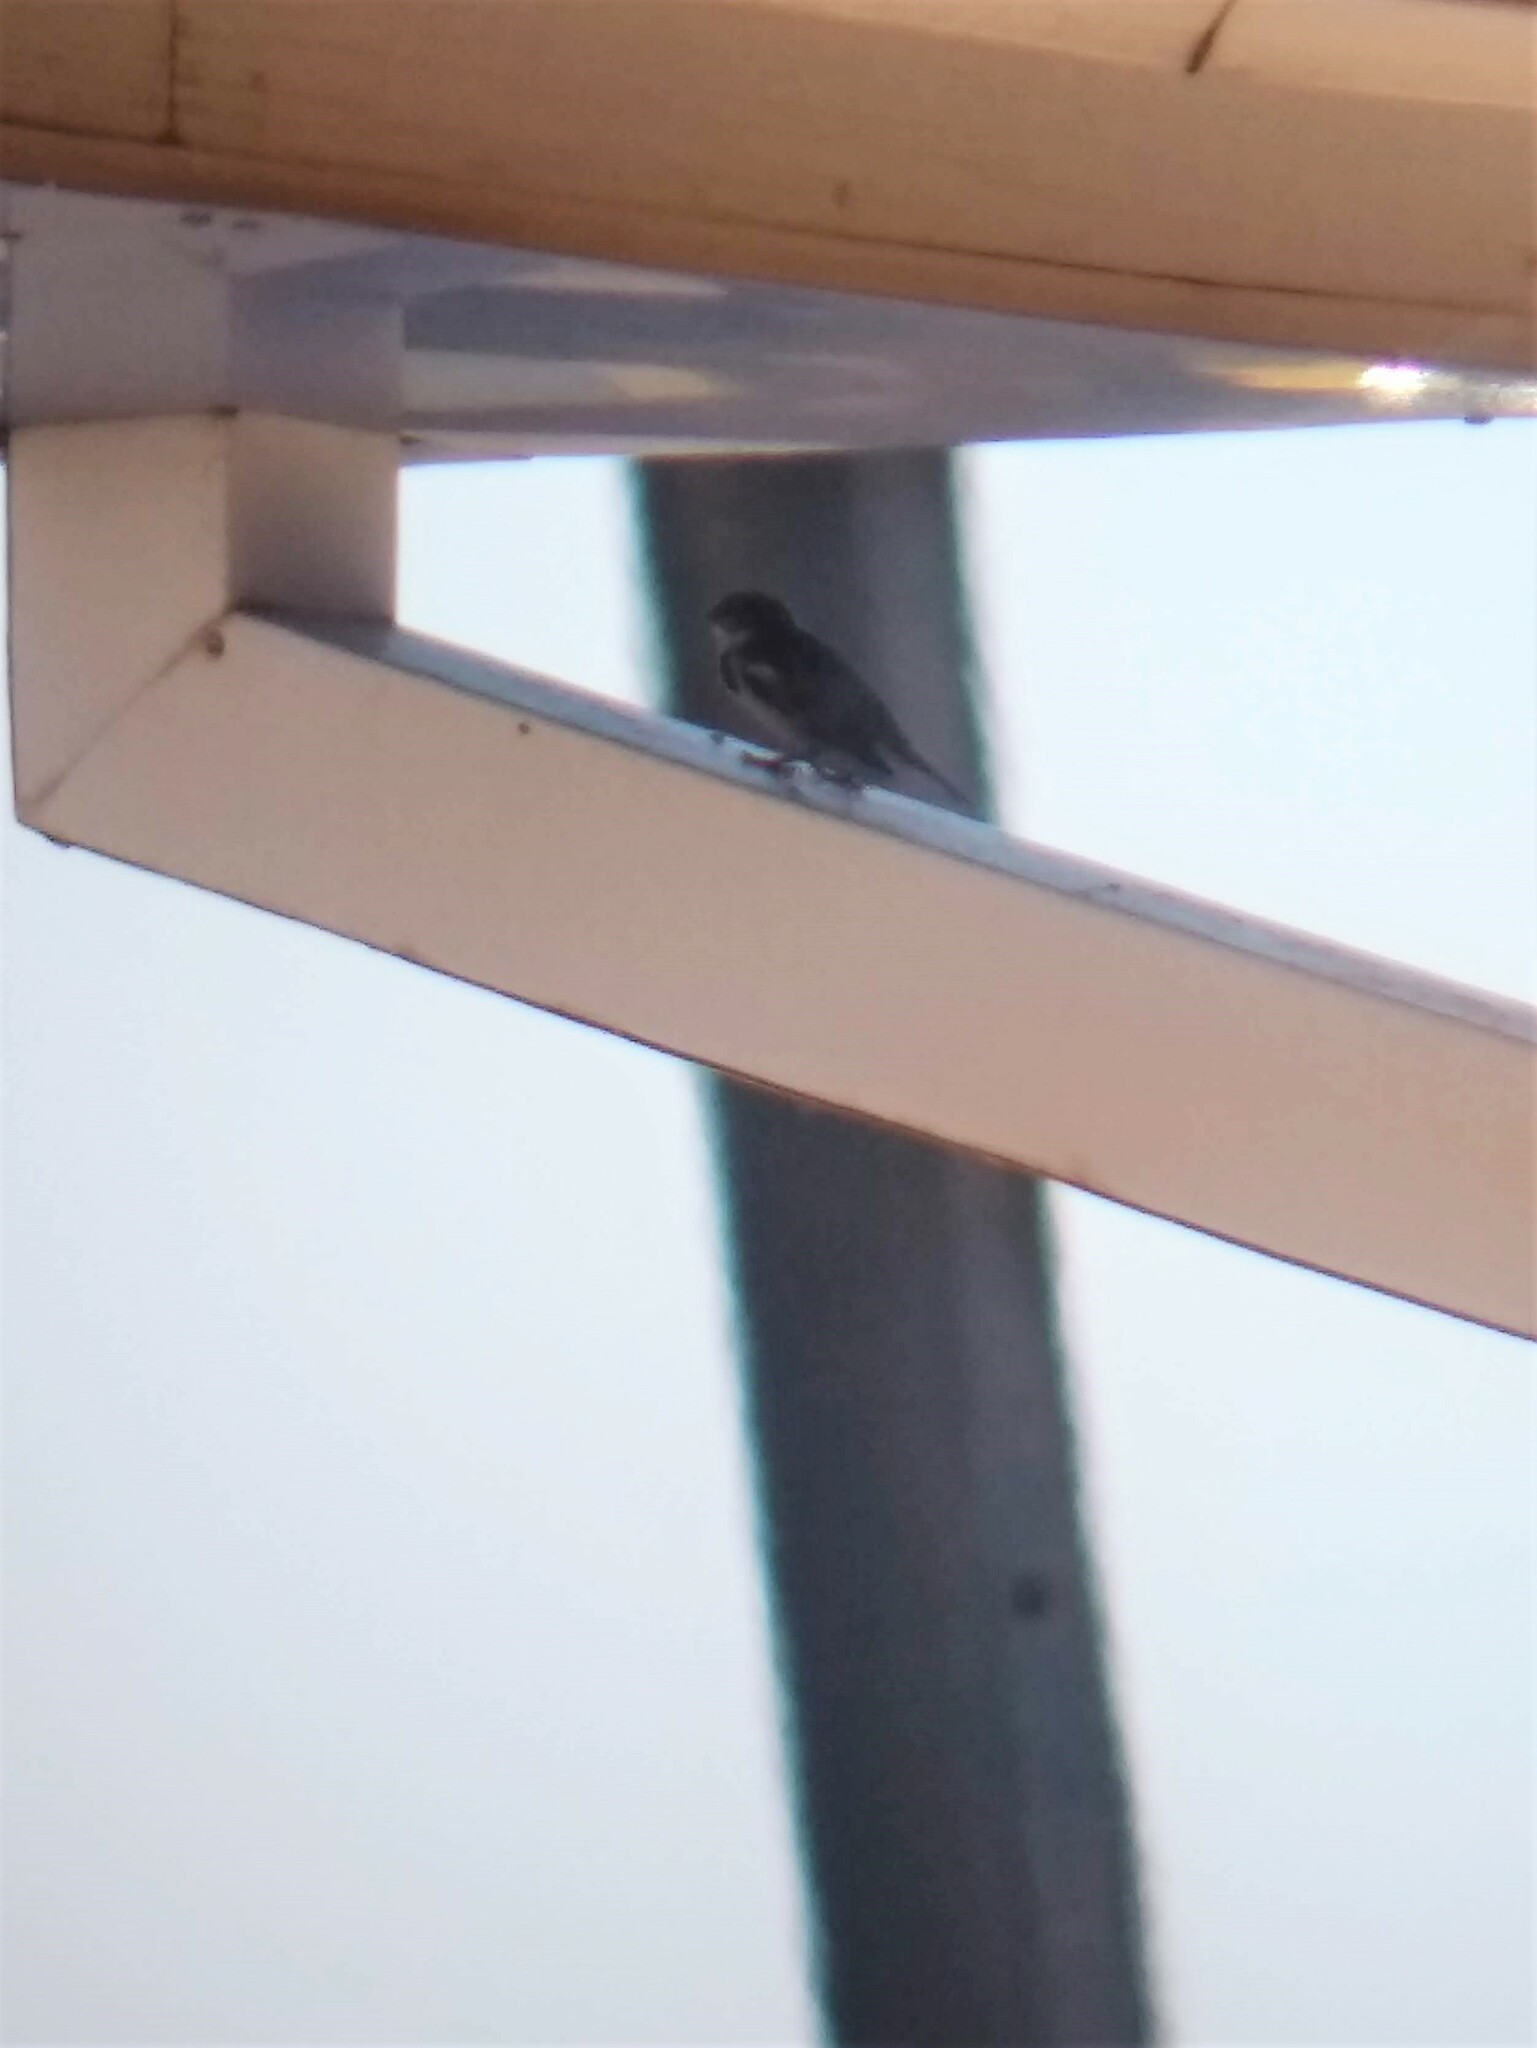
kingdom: Animalia
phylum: Chordata
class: Aves
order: Passeriformes
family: Passeridae
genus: Passer
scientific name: Passer domesticus
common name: House sparrow
